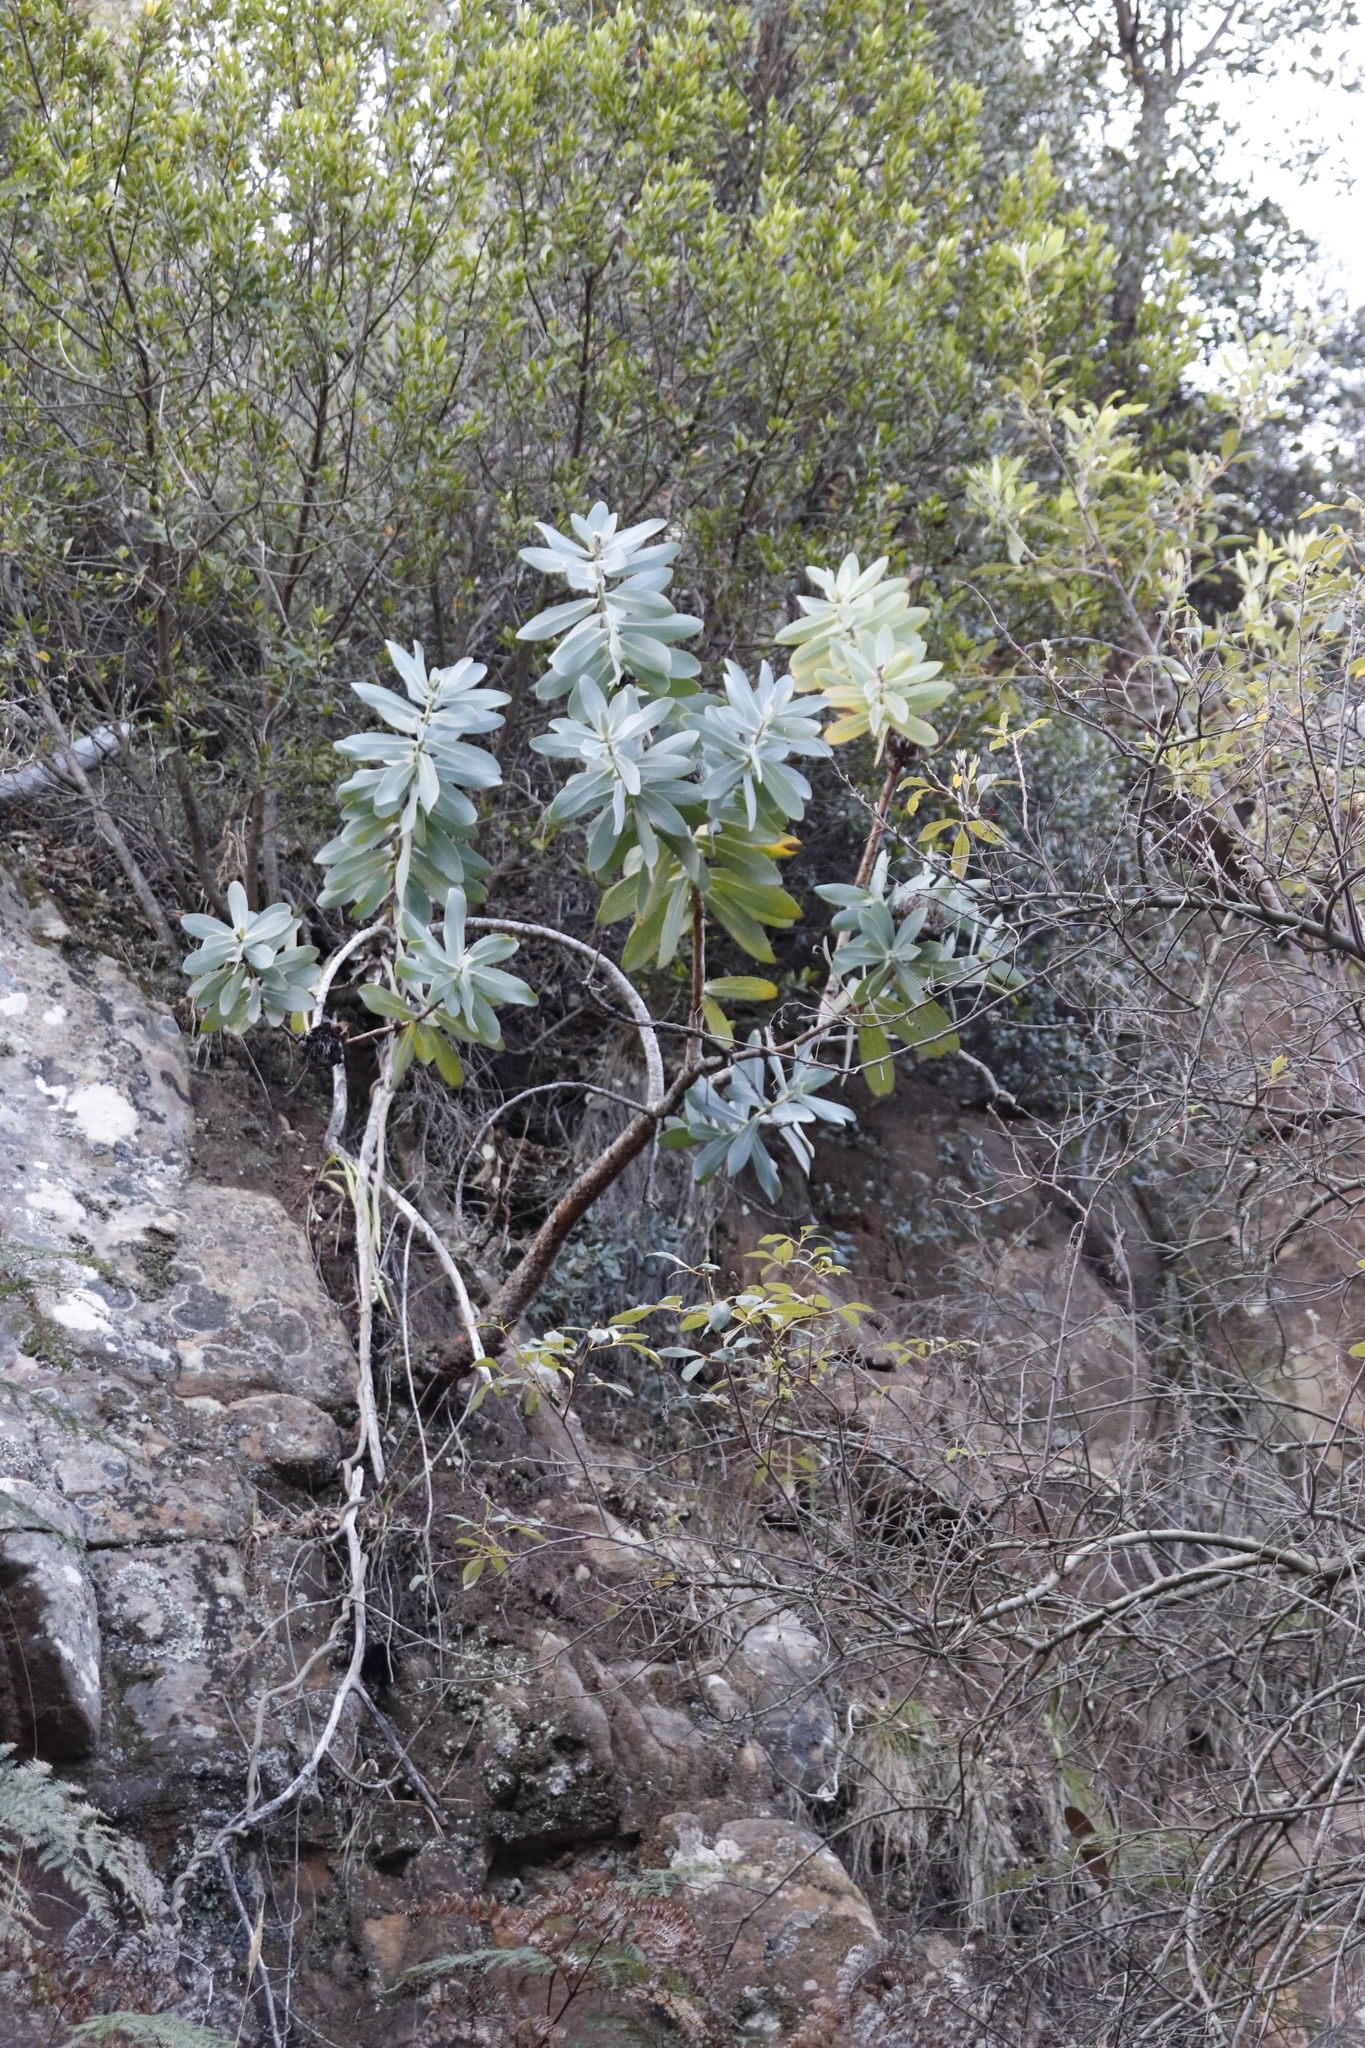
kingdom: Plantae
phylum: Tracheophyta
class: Magnoliopsida
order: Proteales
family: Proteaceae
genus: Protea
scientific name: Protea nitida
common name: Tree protea
